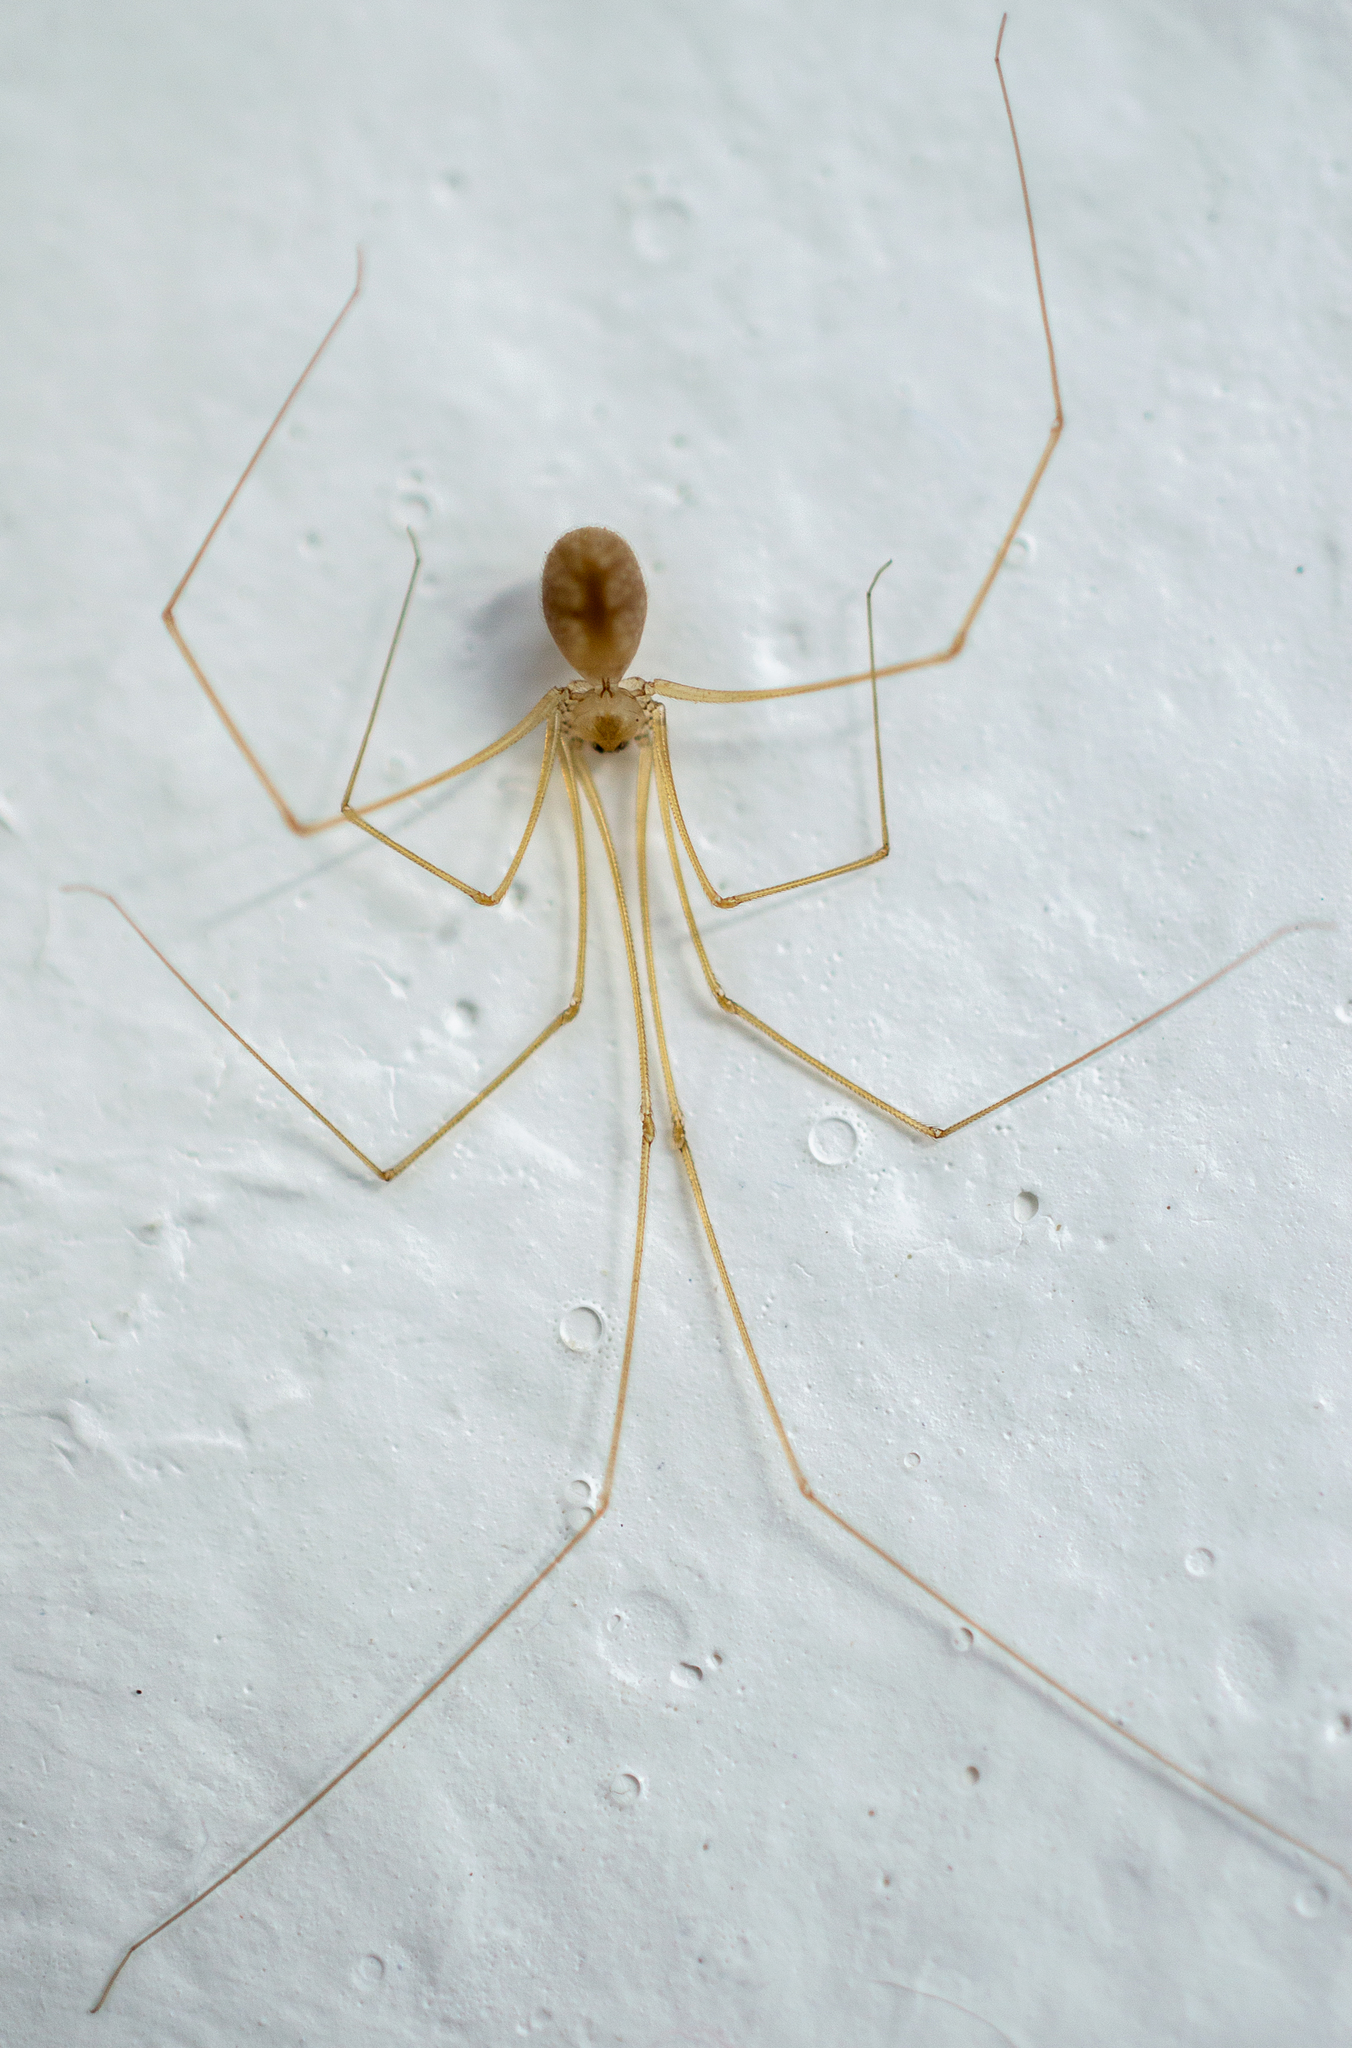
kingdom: Animalia
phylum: Arthropoda
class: Arachnida
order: Araneae
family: Pholcidae
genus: Micropholcus
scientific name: Micropholcus fauroti
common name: Cellar spider
